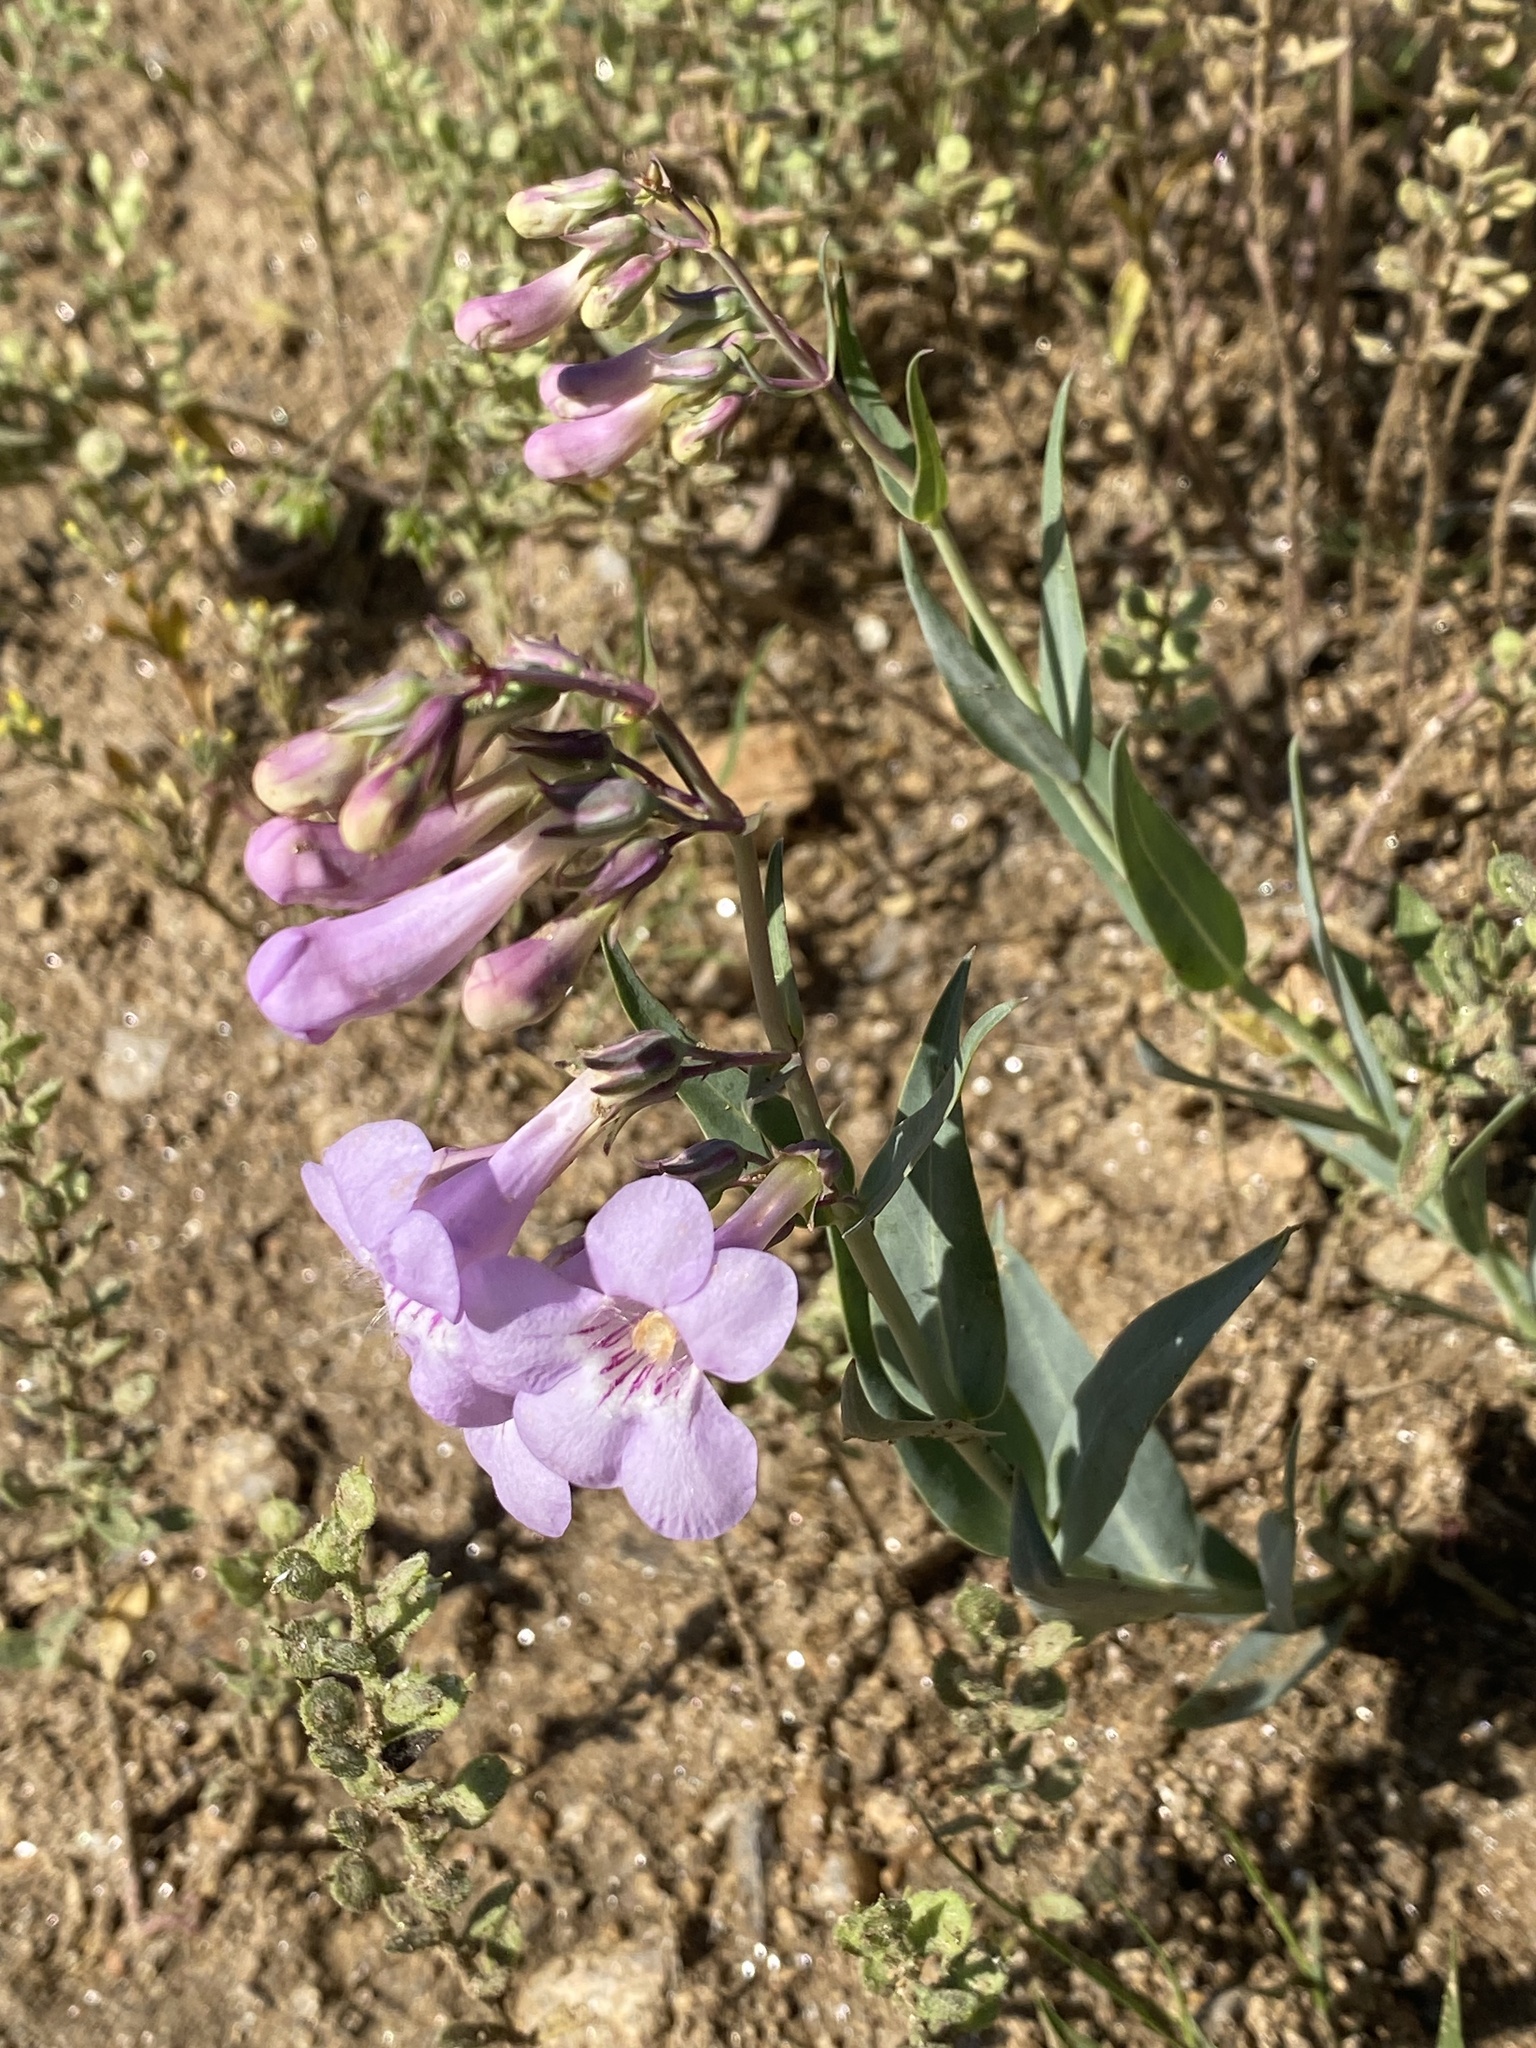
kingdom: Plantae
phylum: Tracheophyta
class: Magnoliopsida
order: Lamiales
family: Plantaginaceae
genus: Penstemon
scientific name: Penstemon secundiflorus
